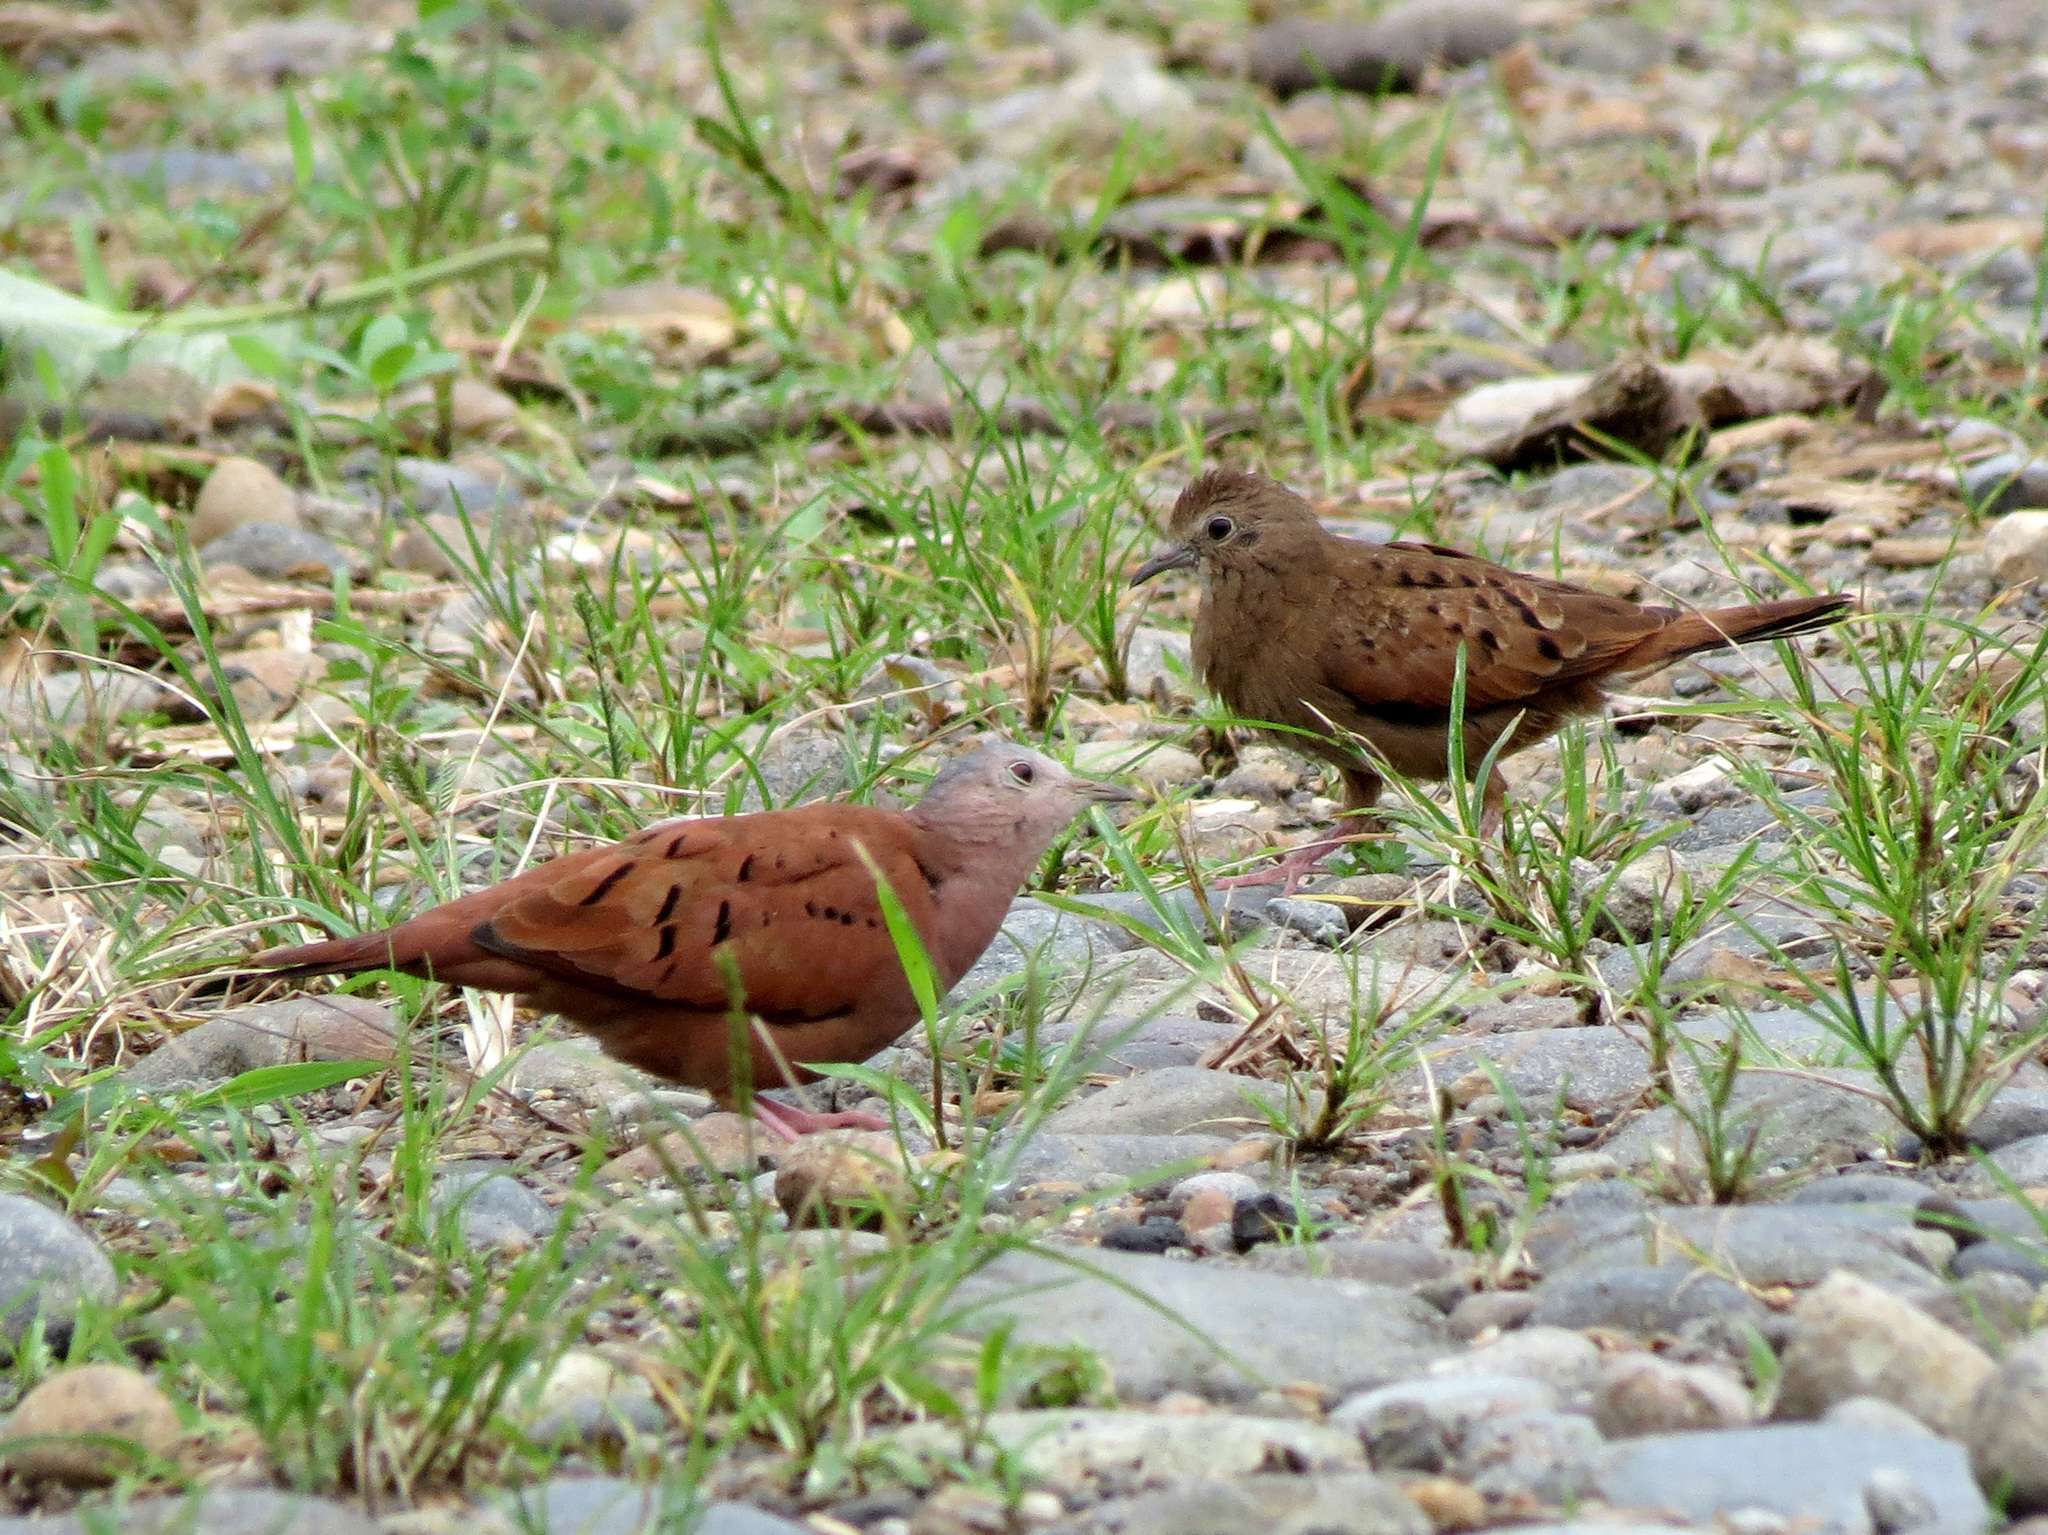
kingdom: Animalia
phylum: Chordata
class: Aves
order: Columbiformes
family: Columbidae
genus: Columbina
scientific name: Columbina talpacoti
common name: Ruddy ground dove
